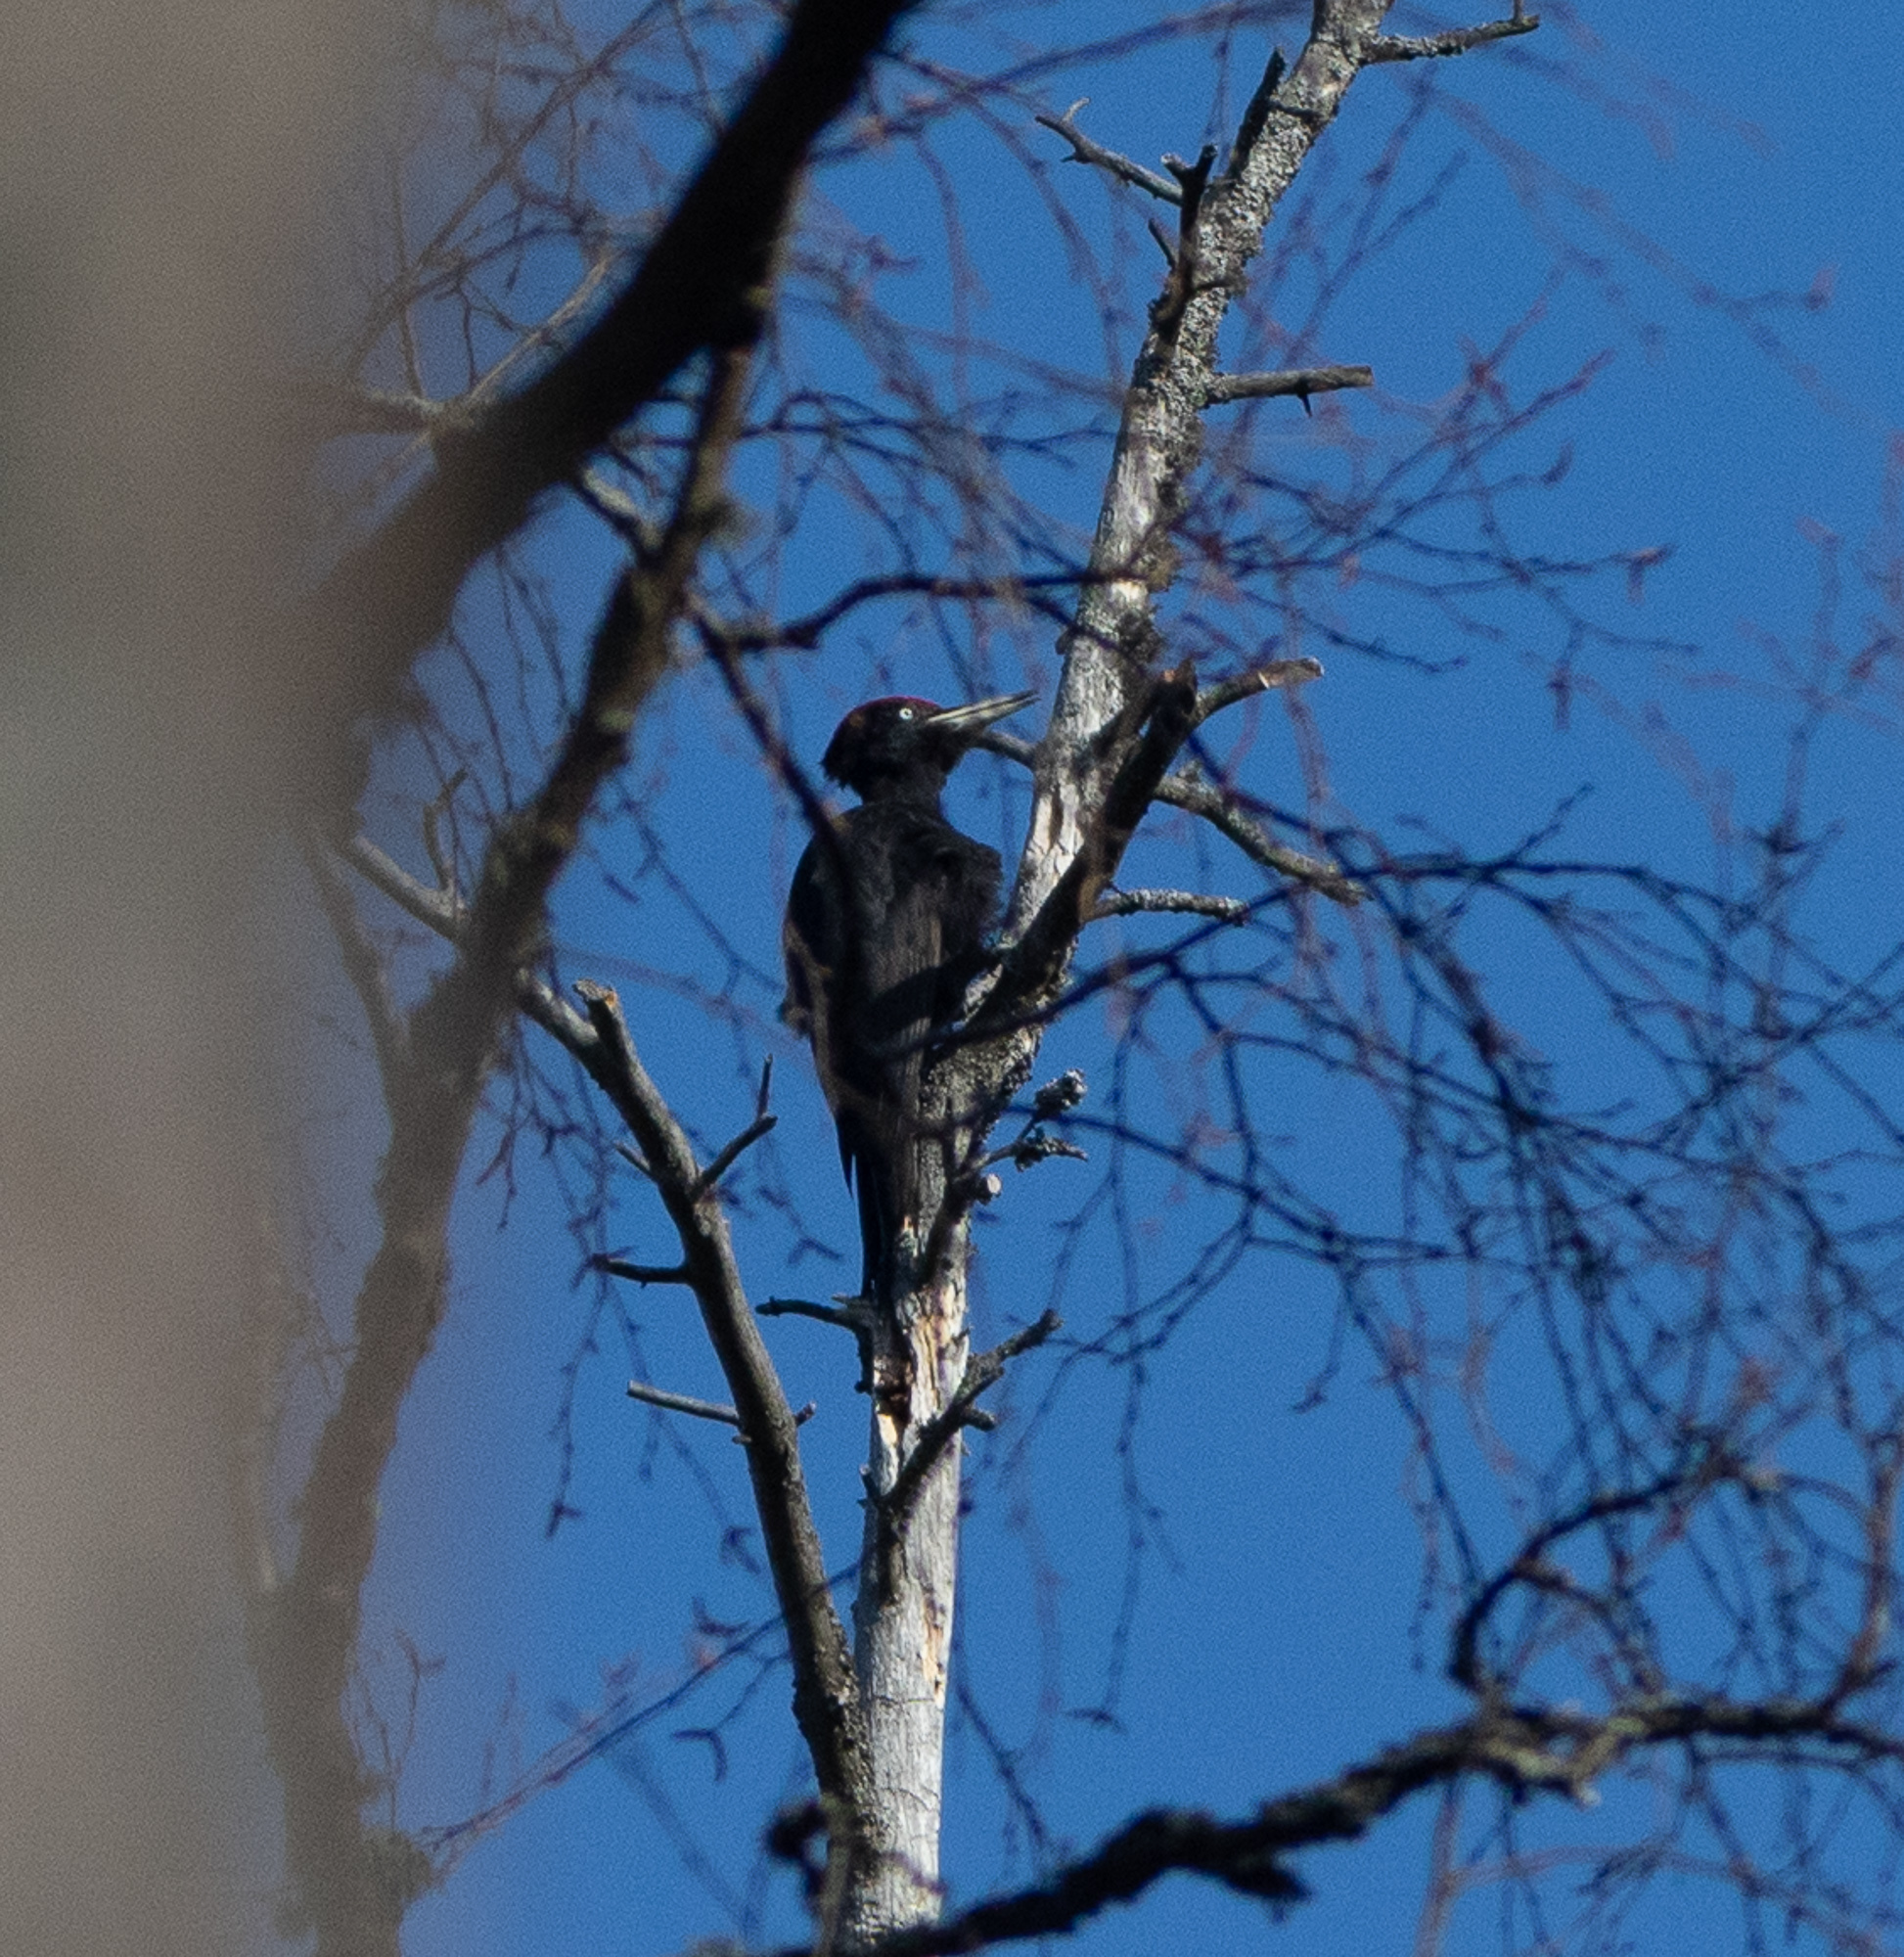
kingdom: Animalia
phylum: Chordata
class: Aves
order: Piciformes
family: Picidae
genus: Dryocopus
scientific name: Dryocopus martius
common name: Black woodpecker
